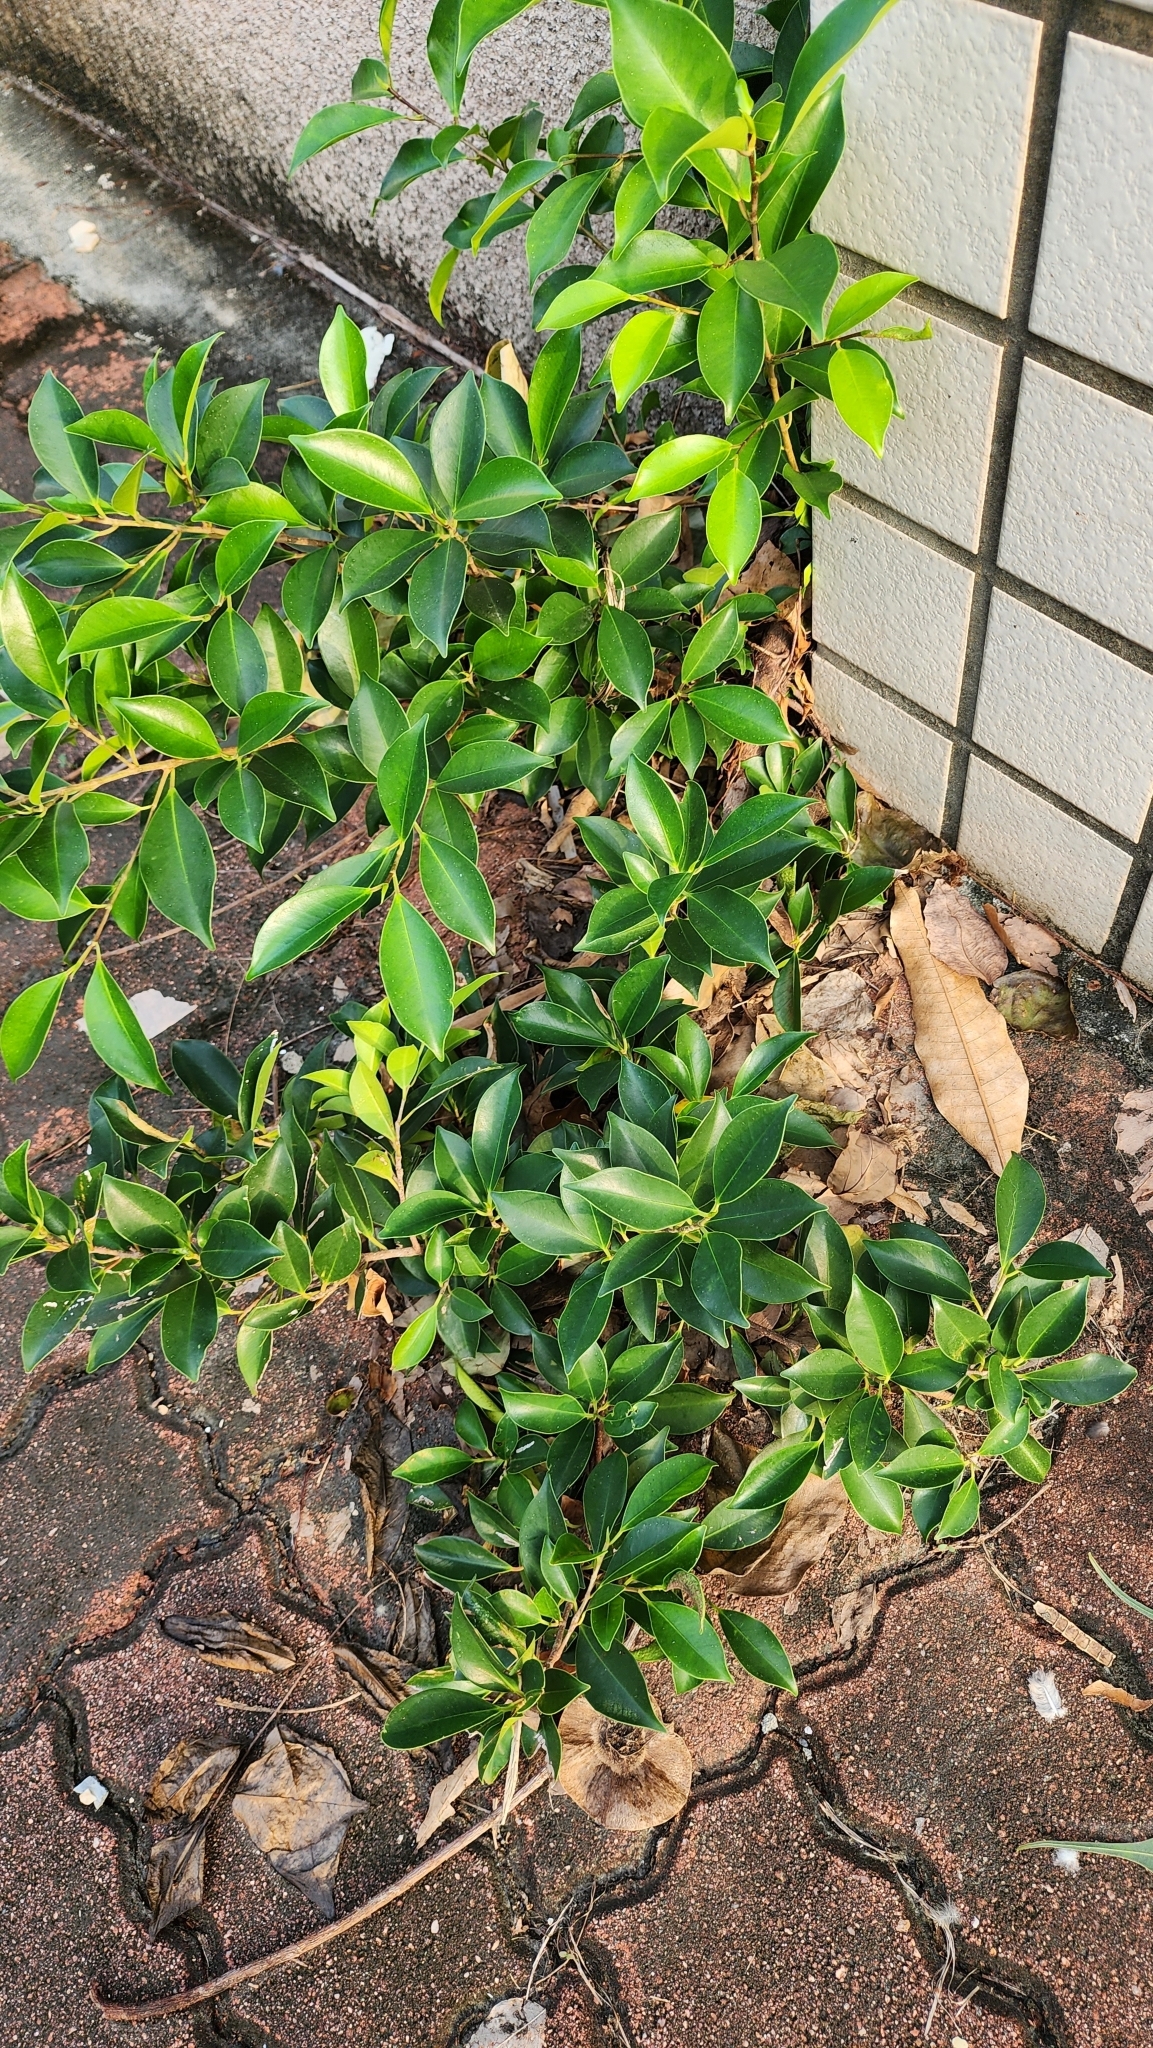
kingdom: Plantae
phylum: Tracheophyta
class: Magnoliopsida
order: Rosales
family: Moraceae
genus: Ficus
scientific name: Ficus microcarpa
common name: Chinese banyan
